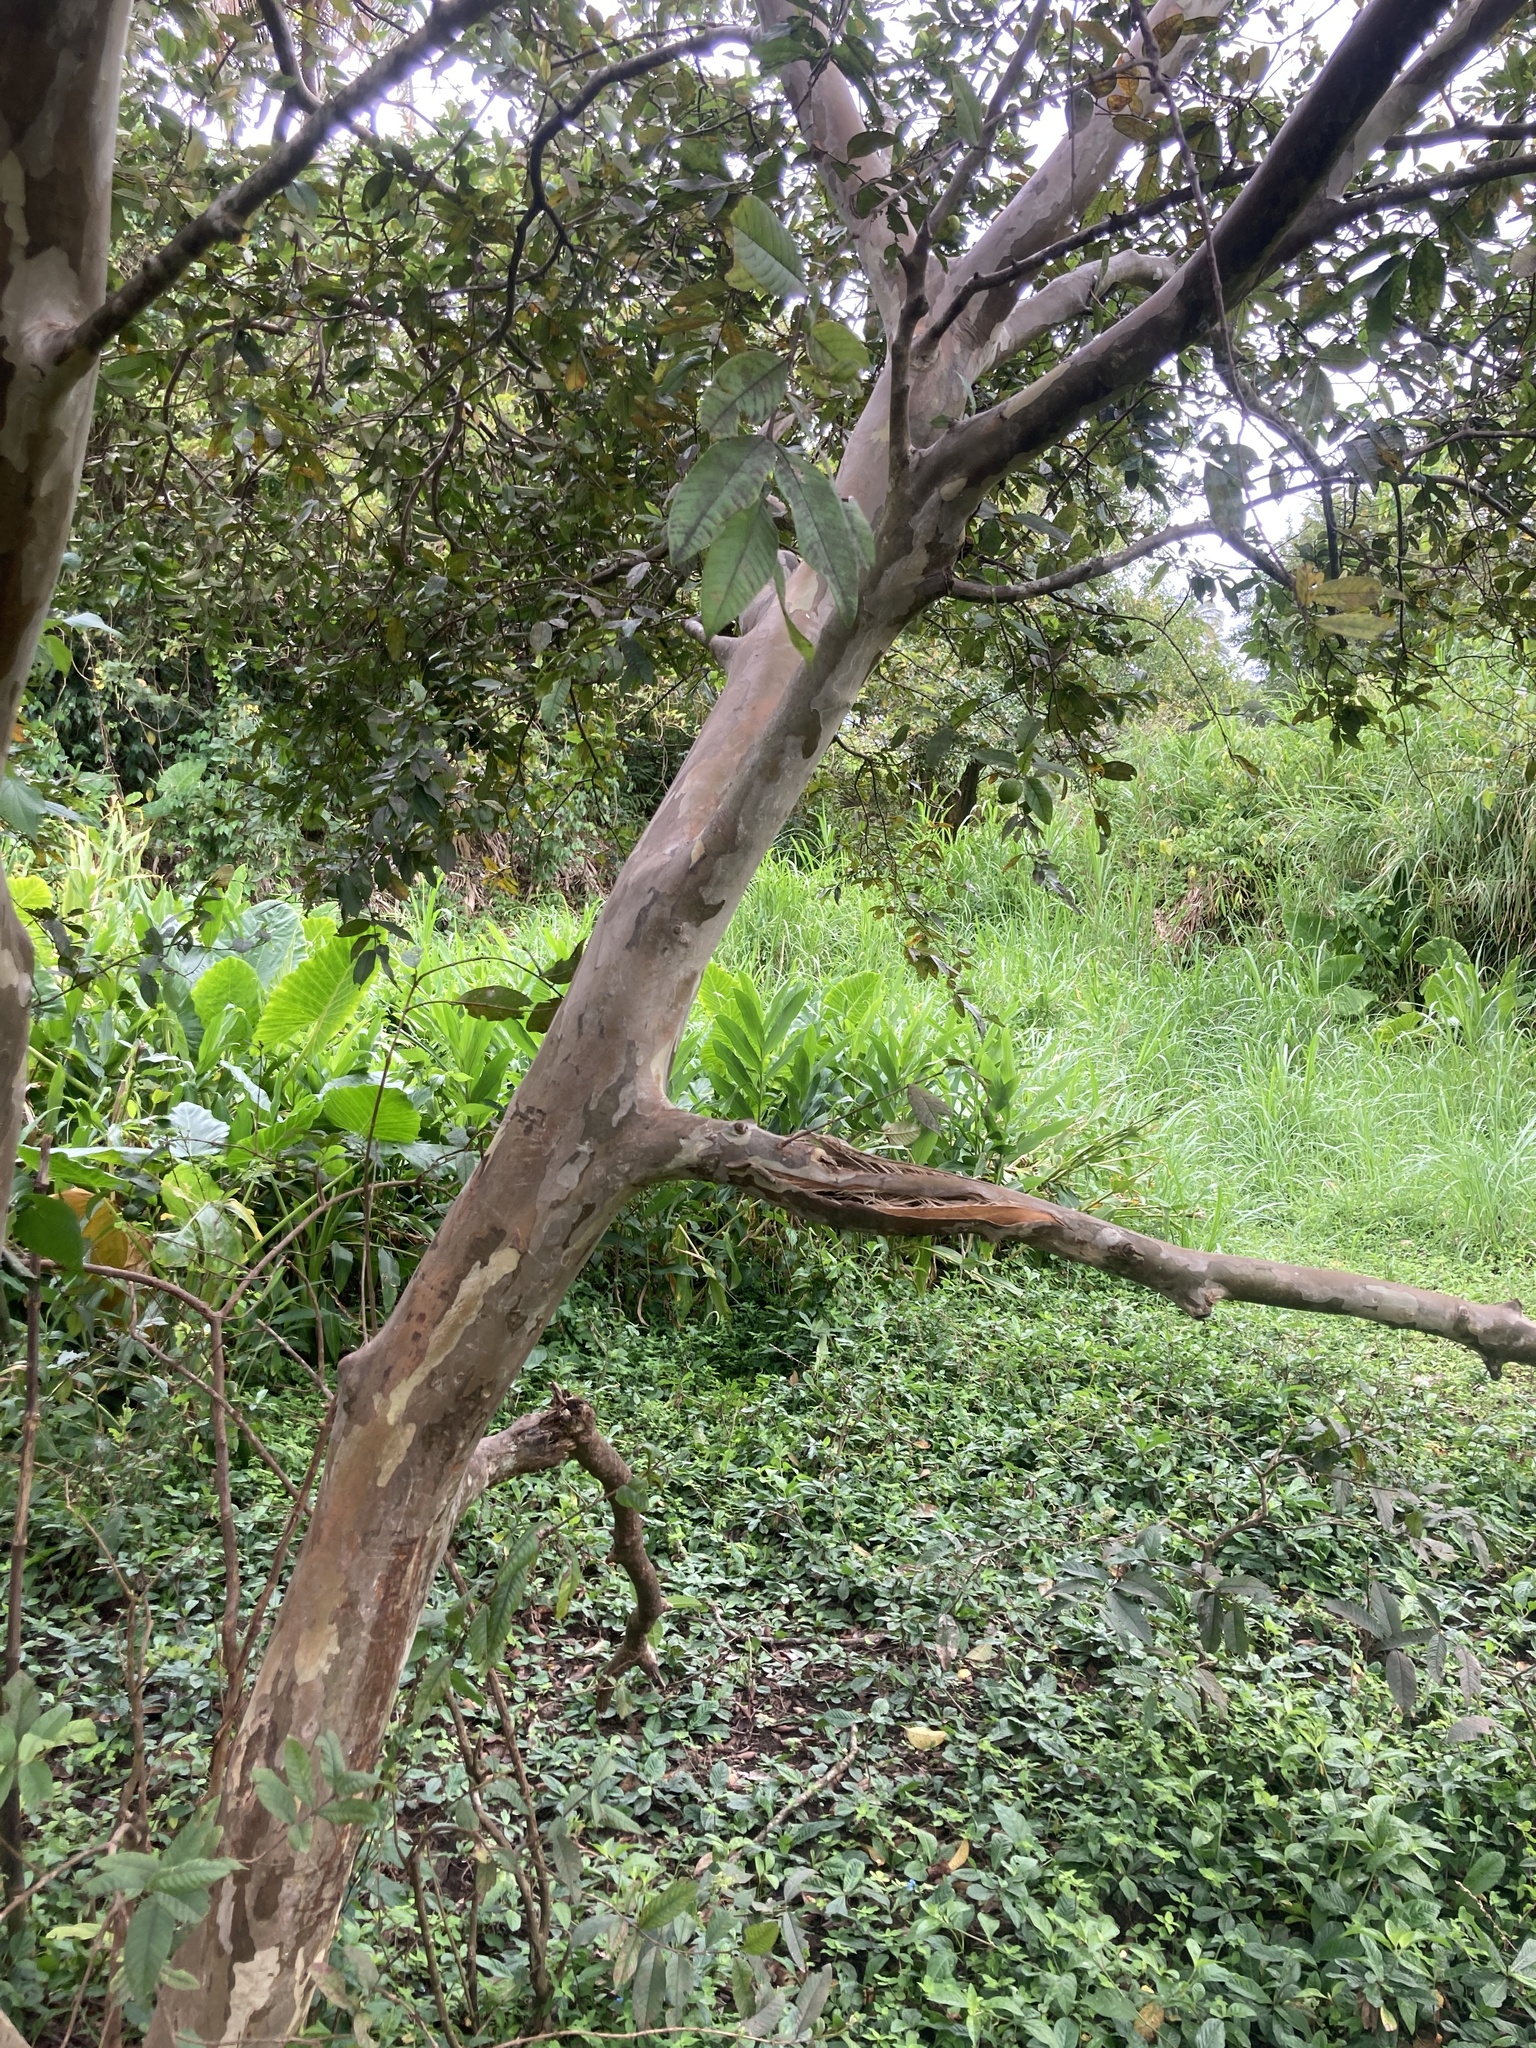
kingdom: Plantae
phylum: Tracheophyta
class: Magnoliopsida
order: Myrtales
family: Myrtaceae
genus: Psidium
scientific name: Psidium guajava
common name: Guava
